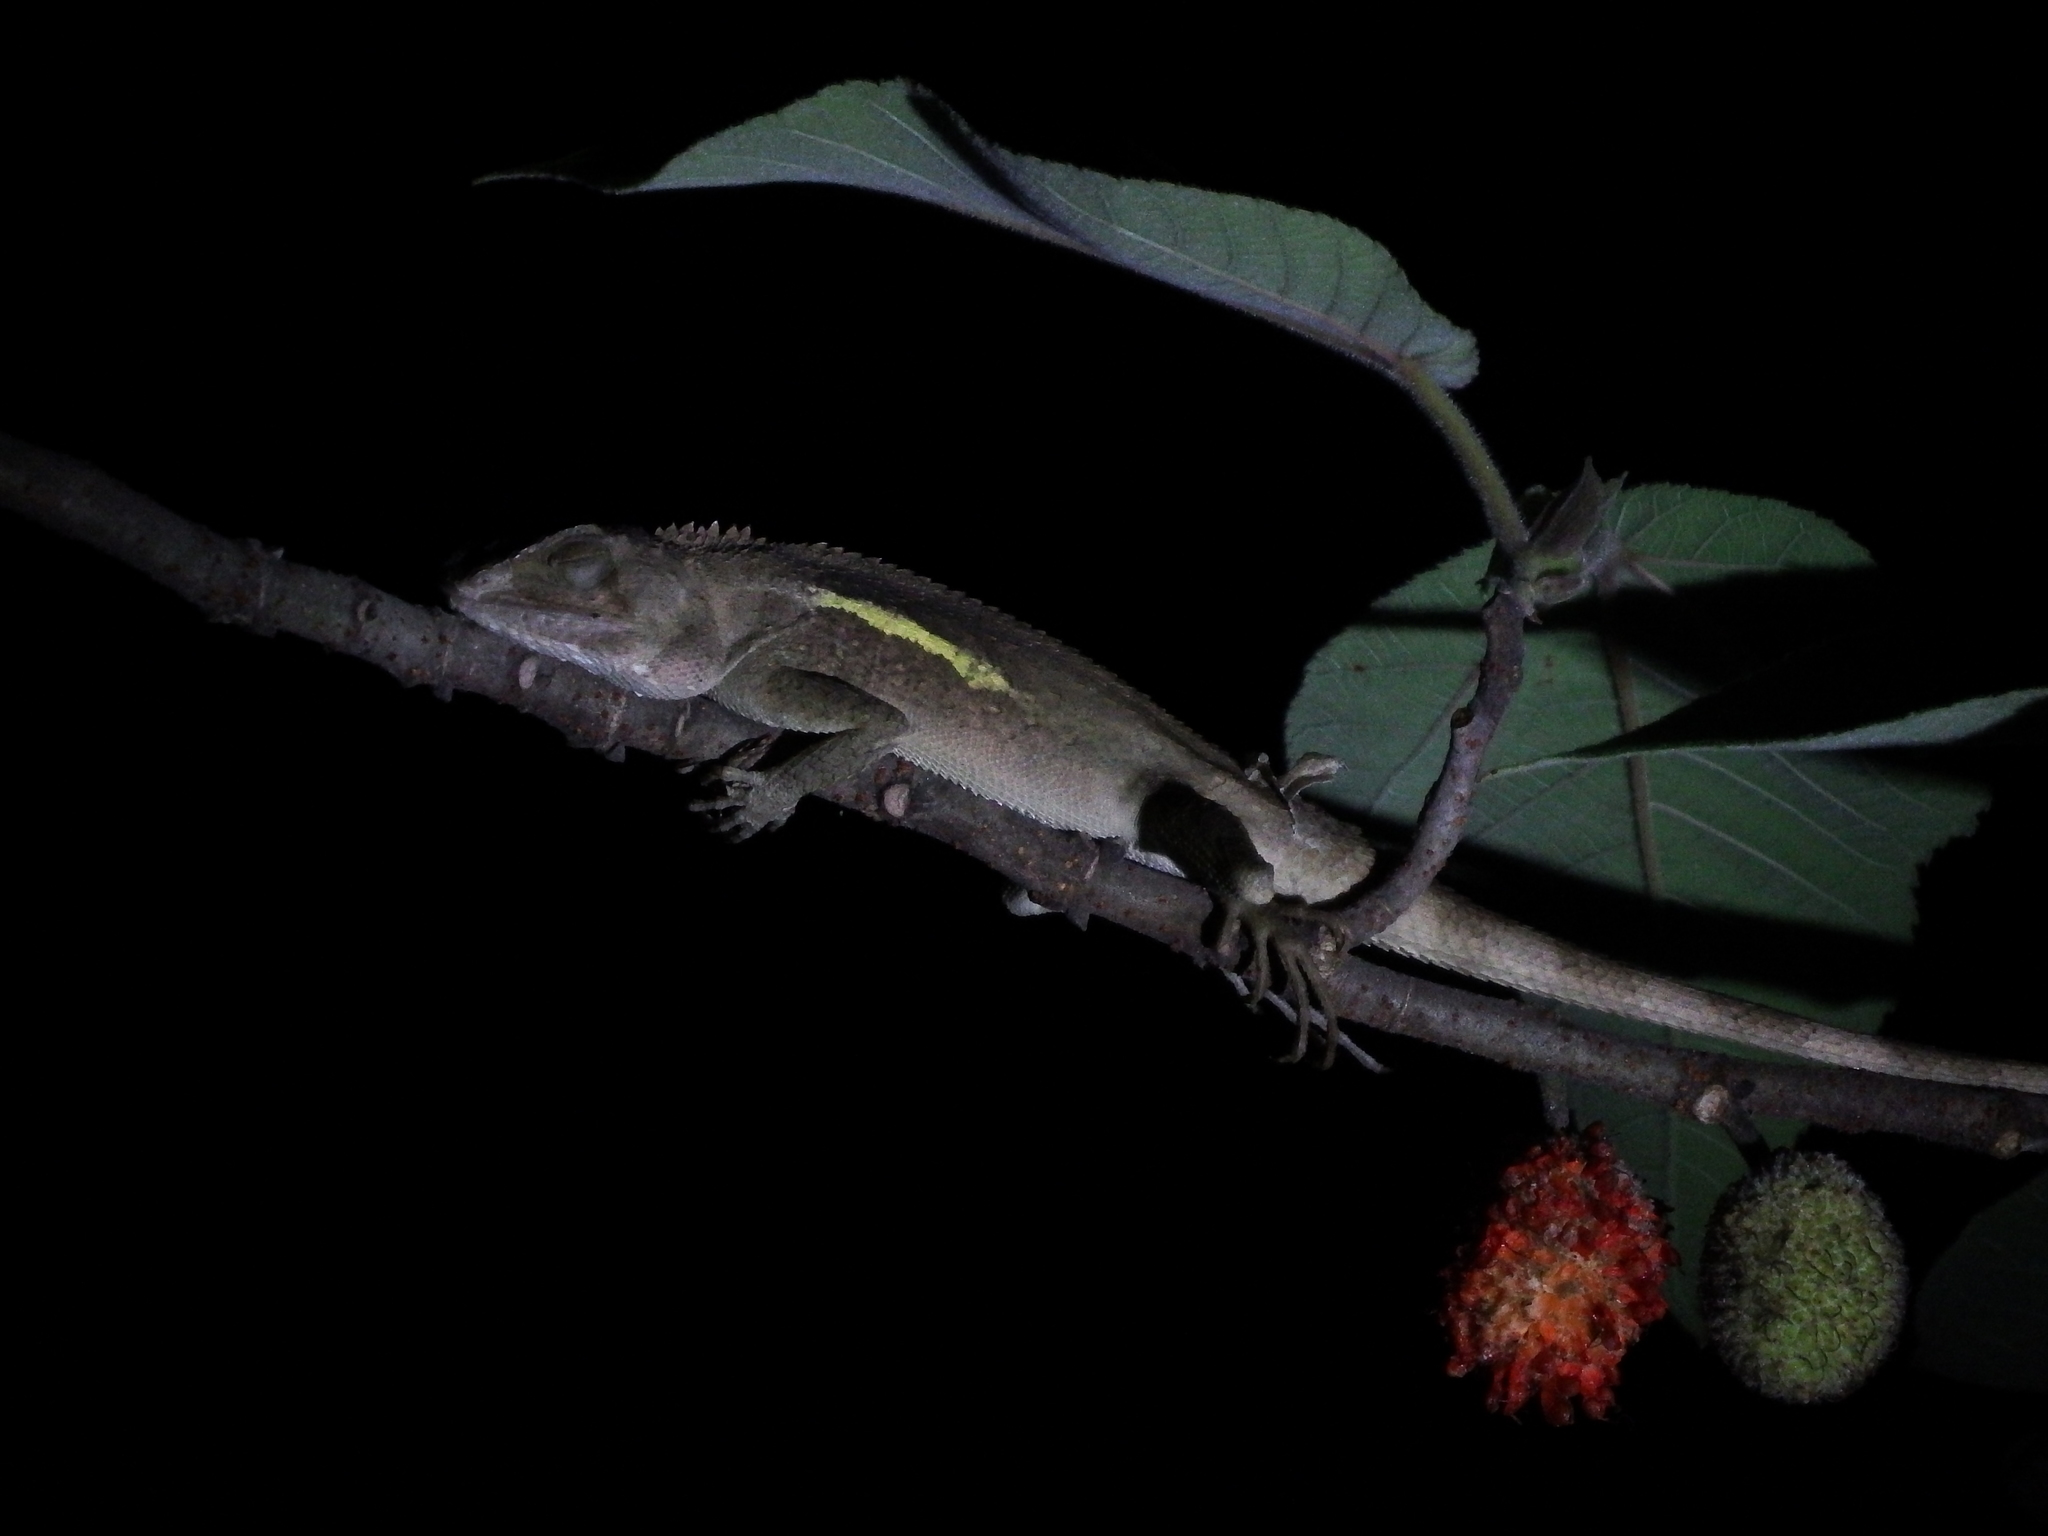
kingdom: Animalia
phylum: Chordata
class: Squamata
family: Agamidae
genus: Diploderma
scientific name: Diploderma swinhonis
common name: Taiwan japalure
